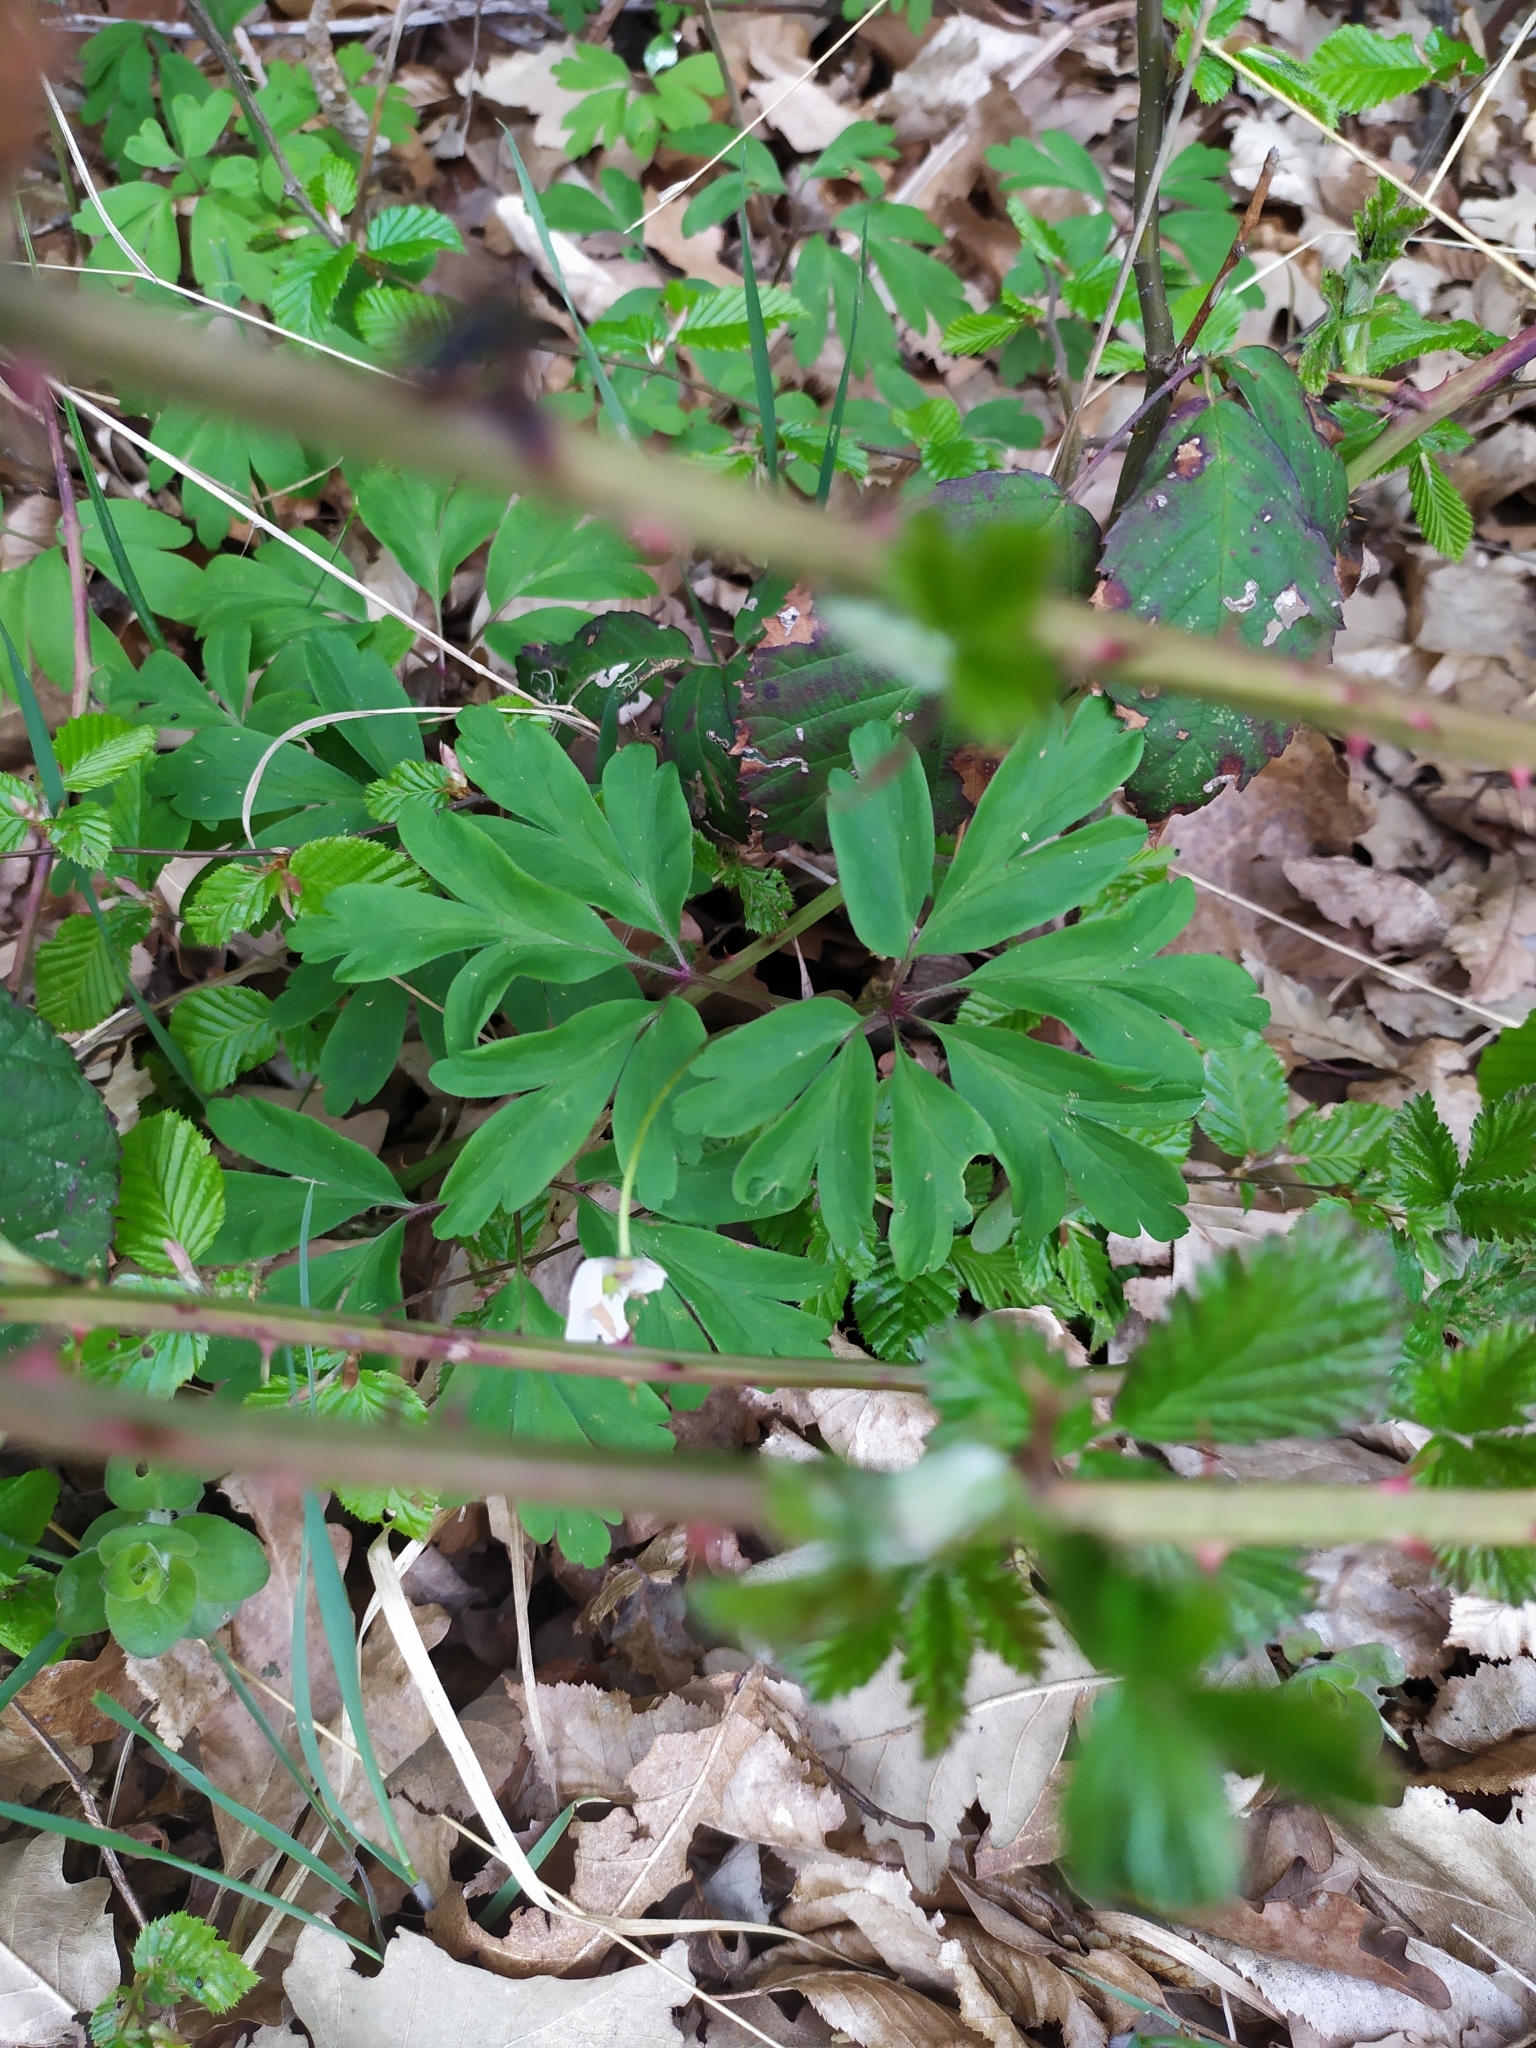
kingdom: Plantae
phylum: Tracheophyta
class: Magnoliopsida
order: Ranunculales
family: Ranunculaceae
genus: Anemone
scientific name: Anemone nemorosa
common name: Wood anemone
